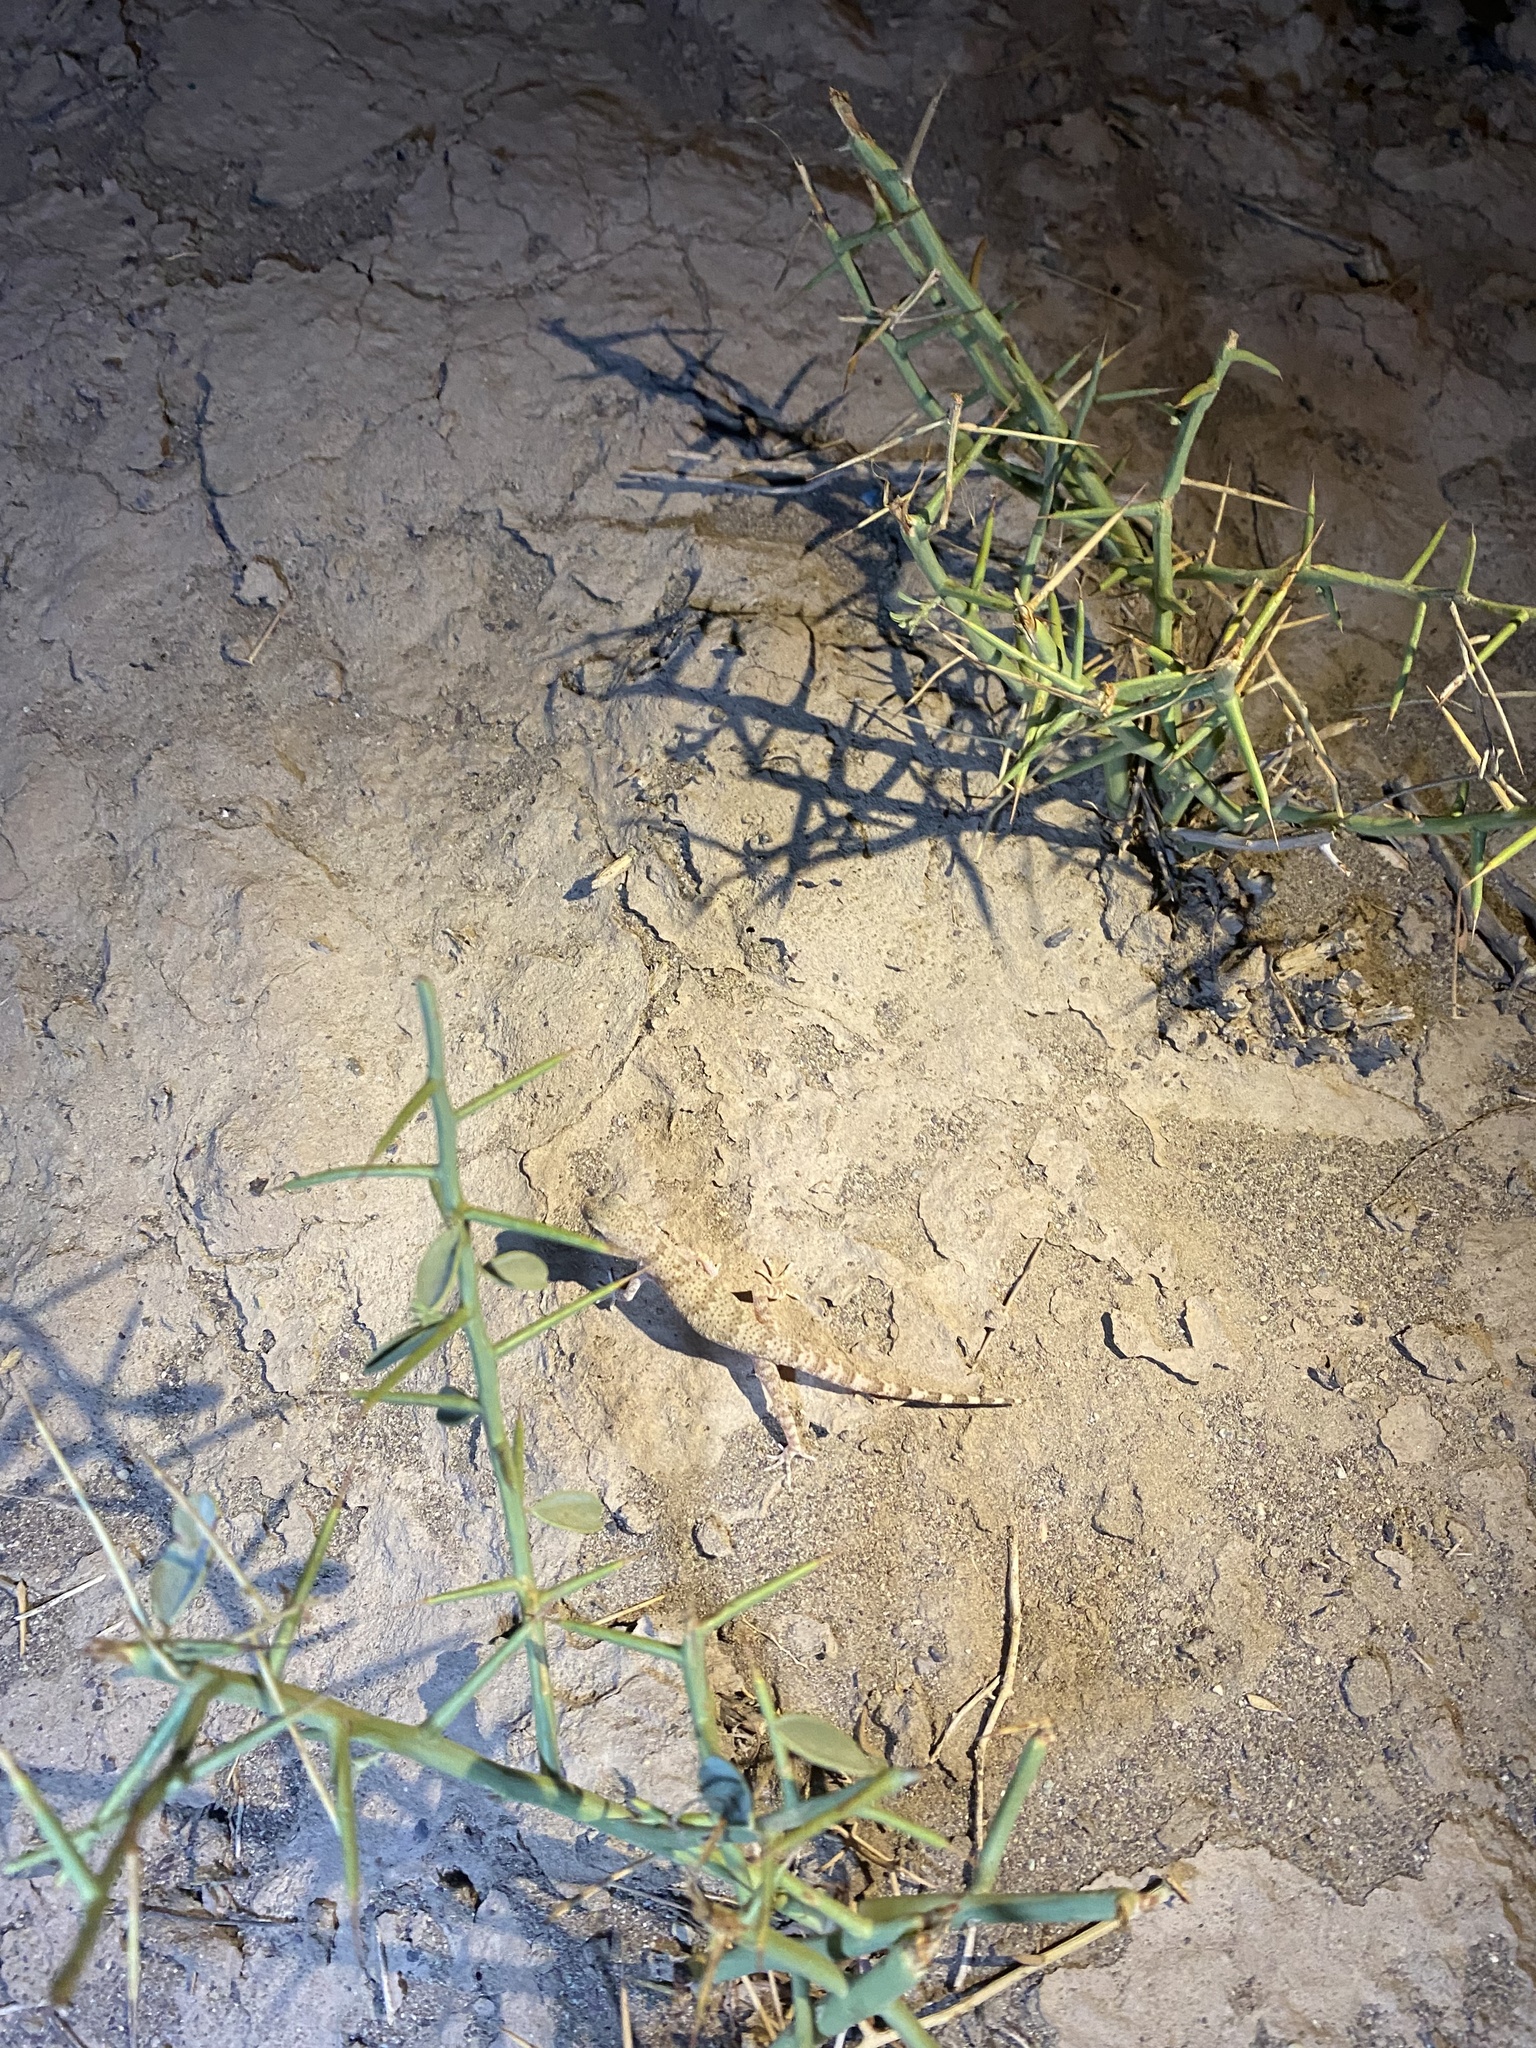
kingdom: Animalia
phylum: Chordata
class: Squamata
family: Gekkonidae
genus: Bunopus
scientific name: Bunopus crassicauda
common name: Thick-tailed tuberculated gecko
